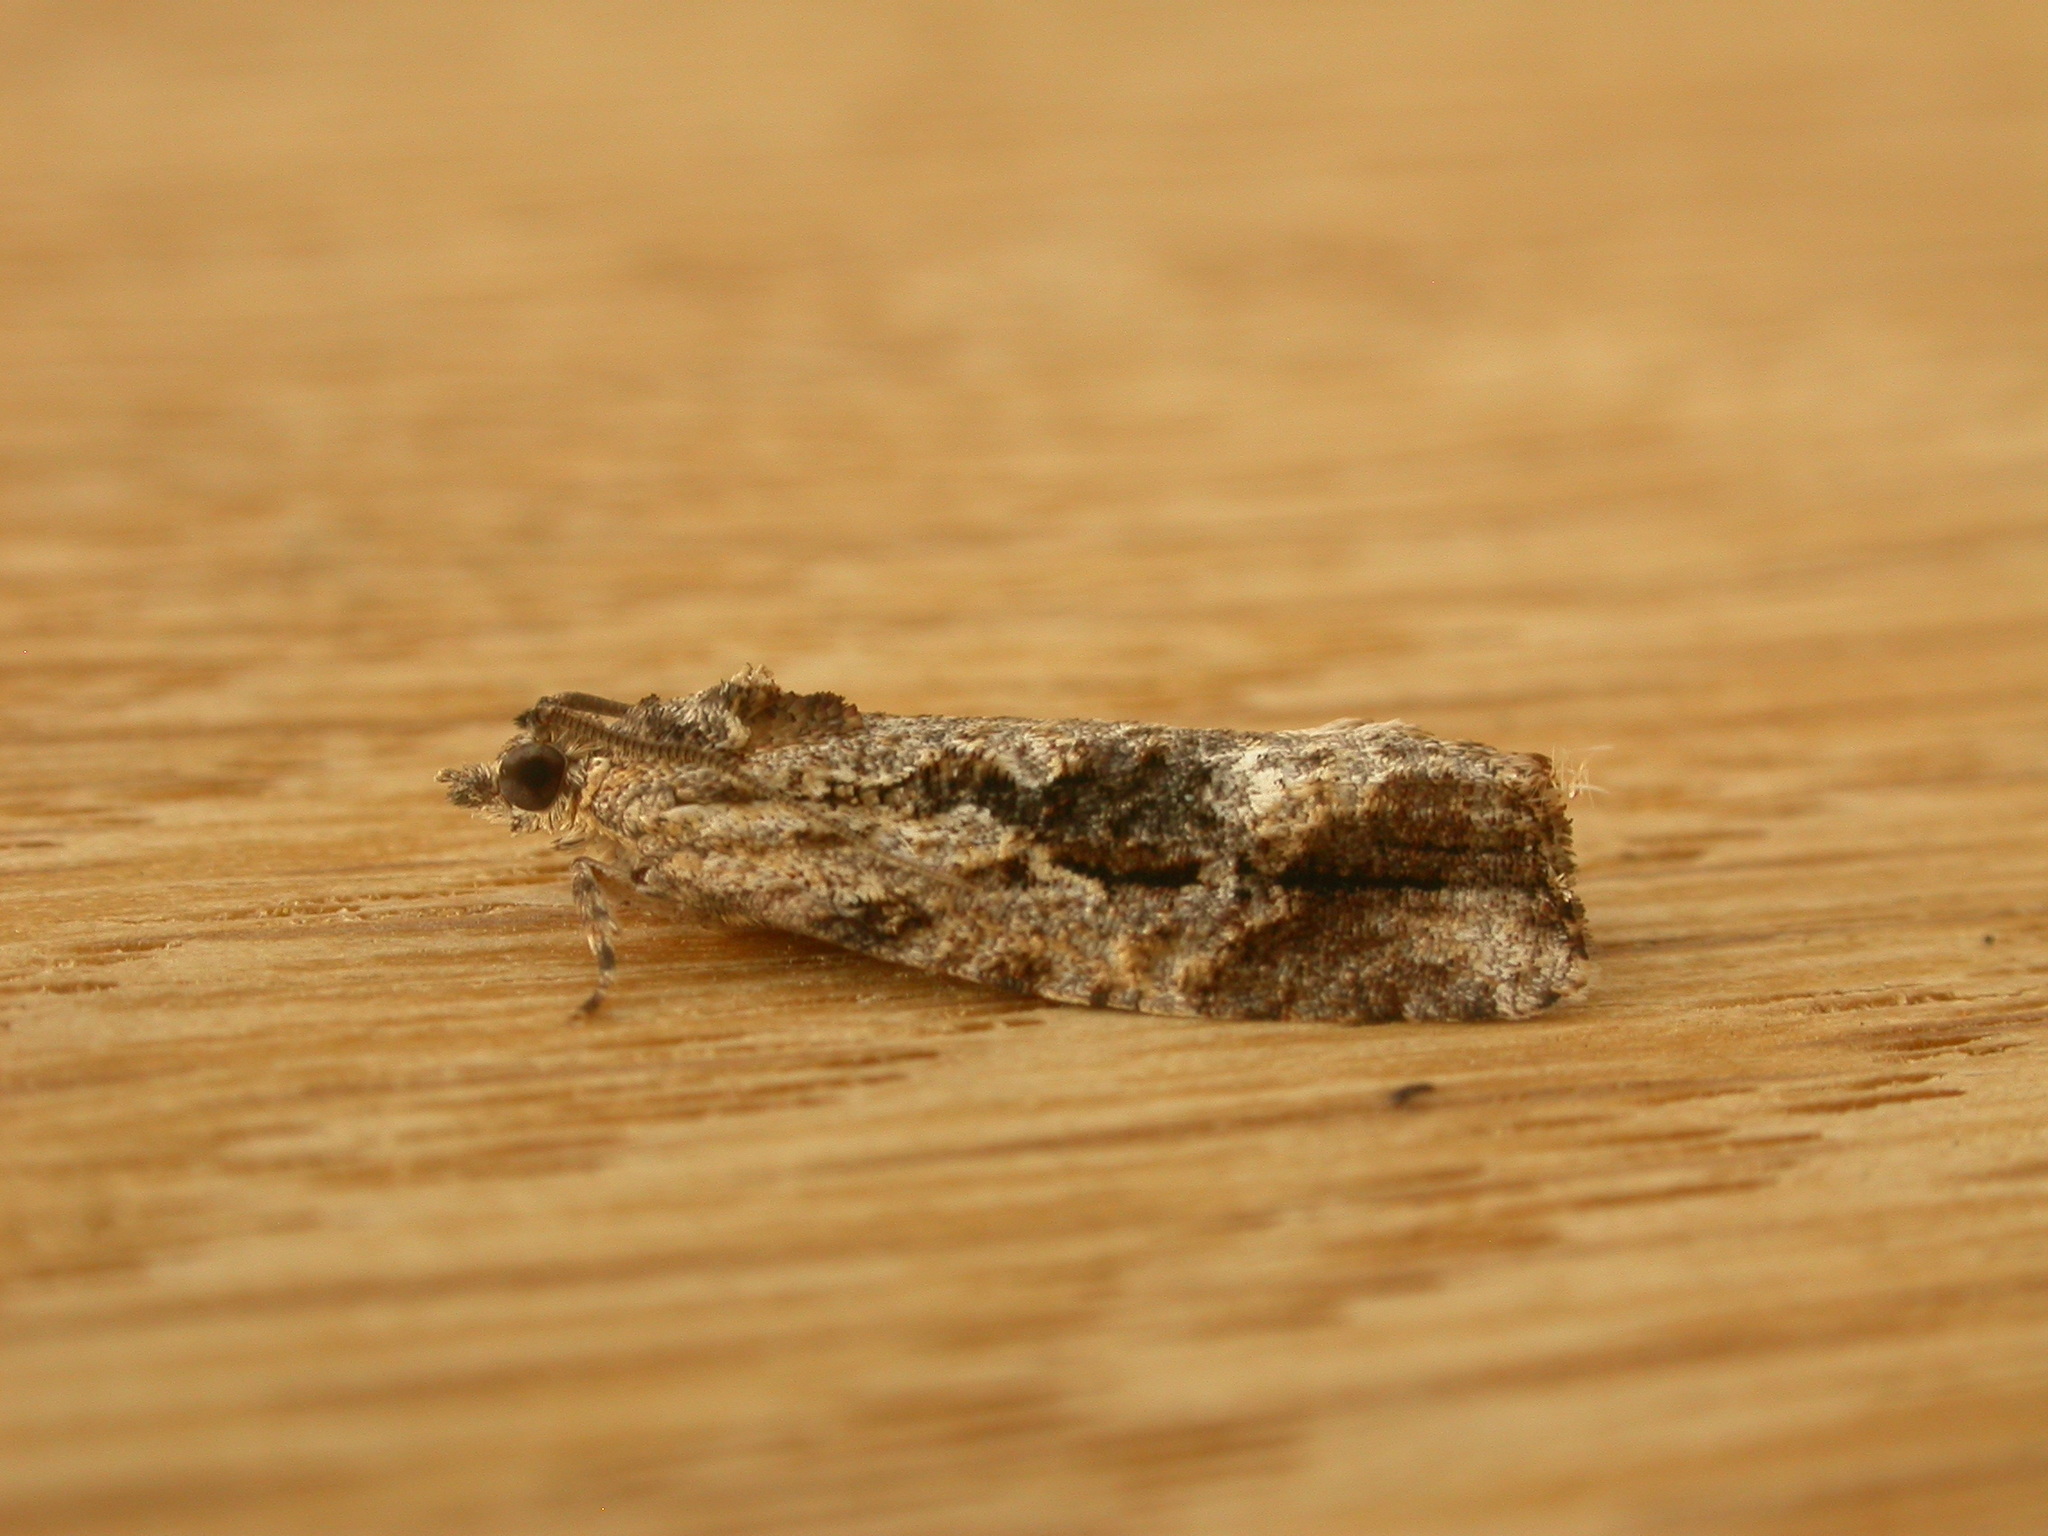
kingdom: Animalia
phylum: Arthropoda
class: Insecta
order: Lepidoptera
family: Tortricidae
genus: Thrincophora
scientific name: Thrincophora lignigerana
